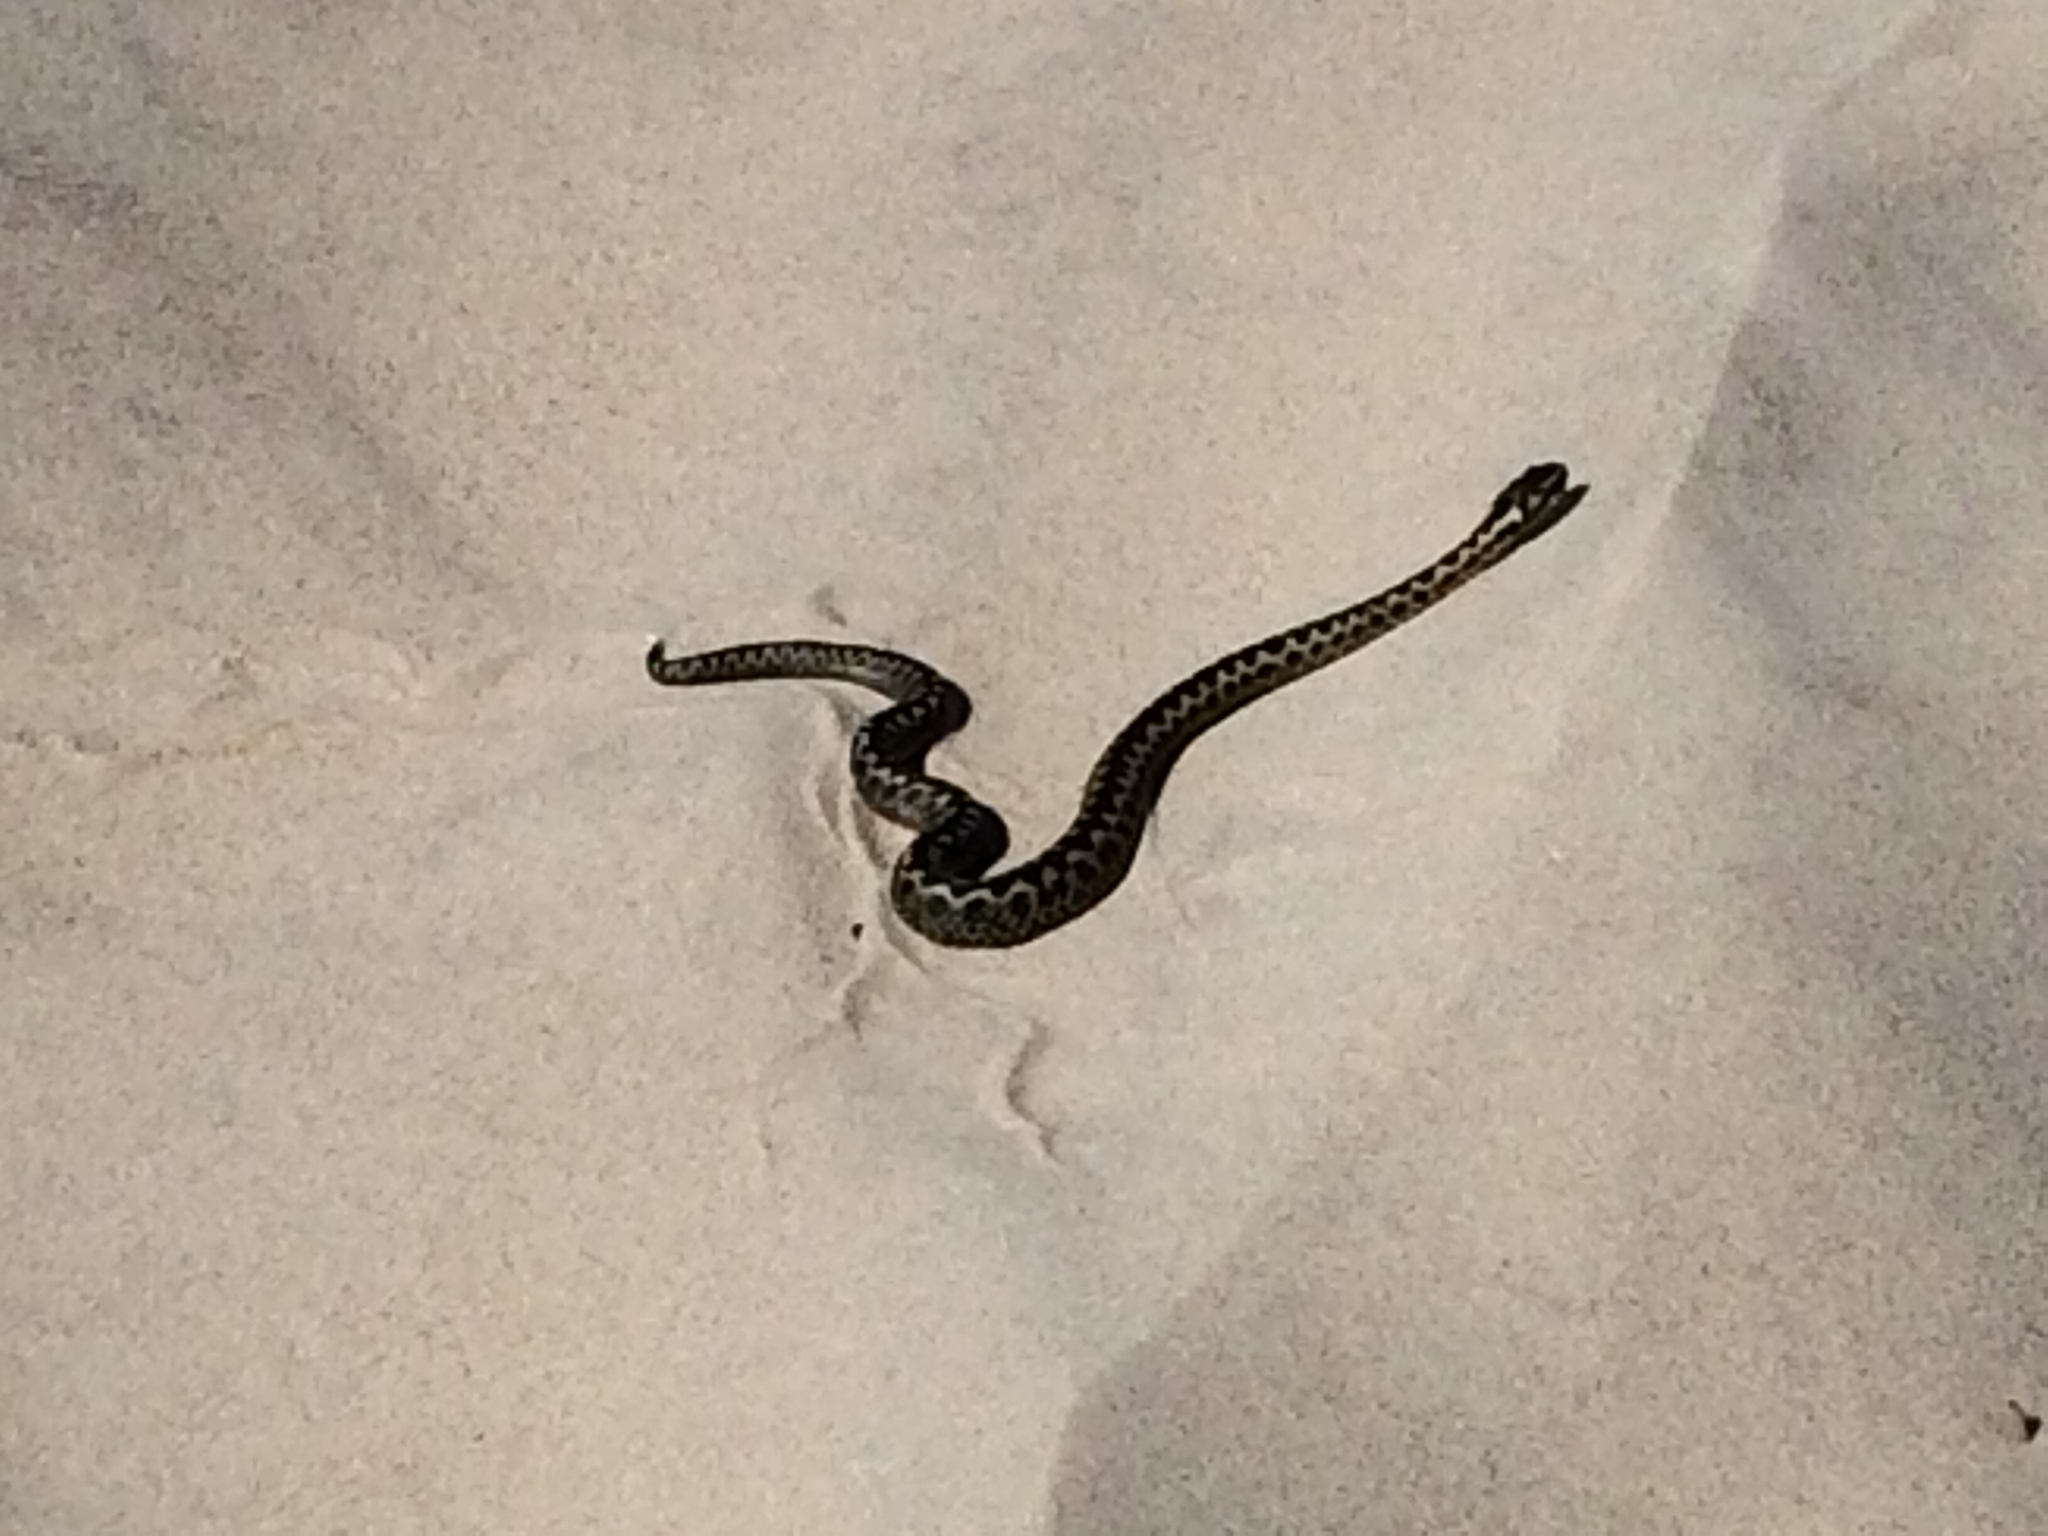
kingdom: Animalia
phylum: Chordata
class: Squamata
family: Viperidae
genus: Vipera
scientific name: Vipera berus
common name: Adder
